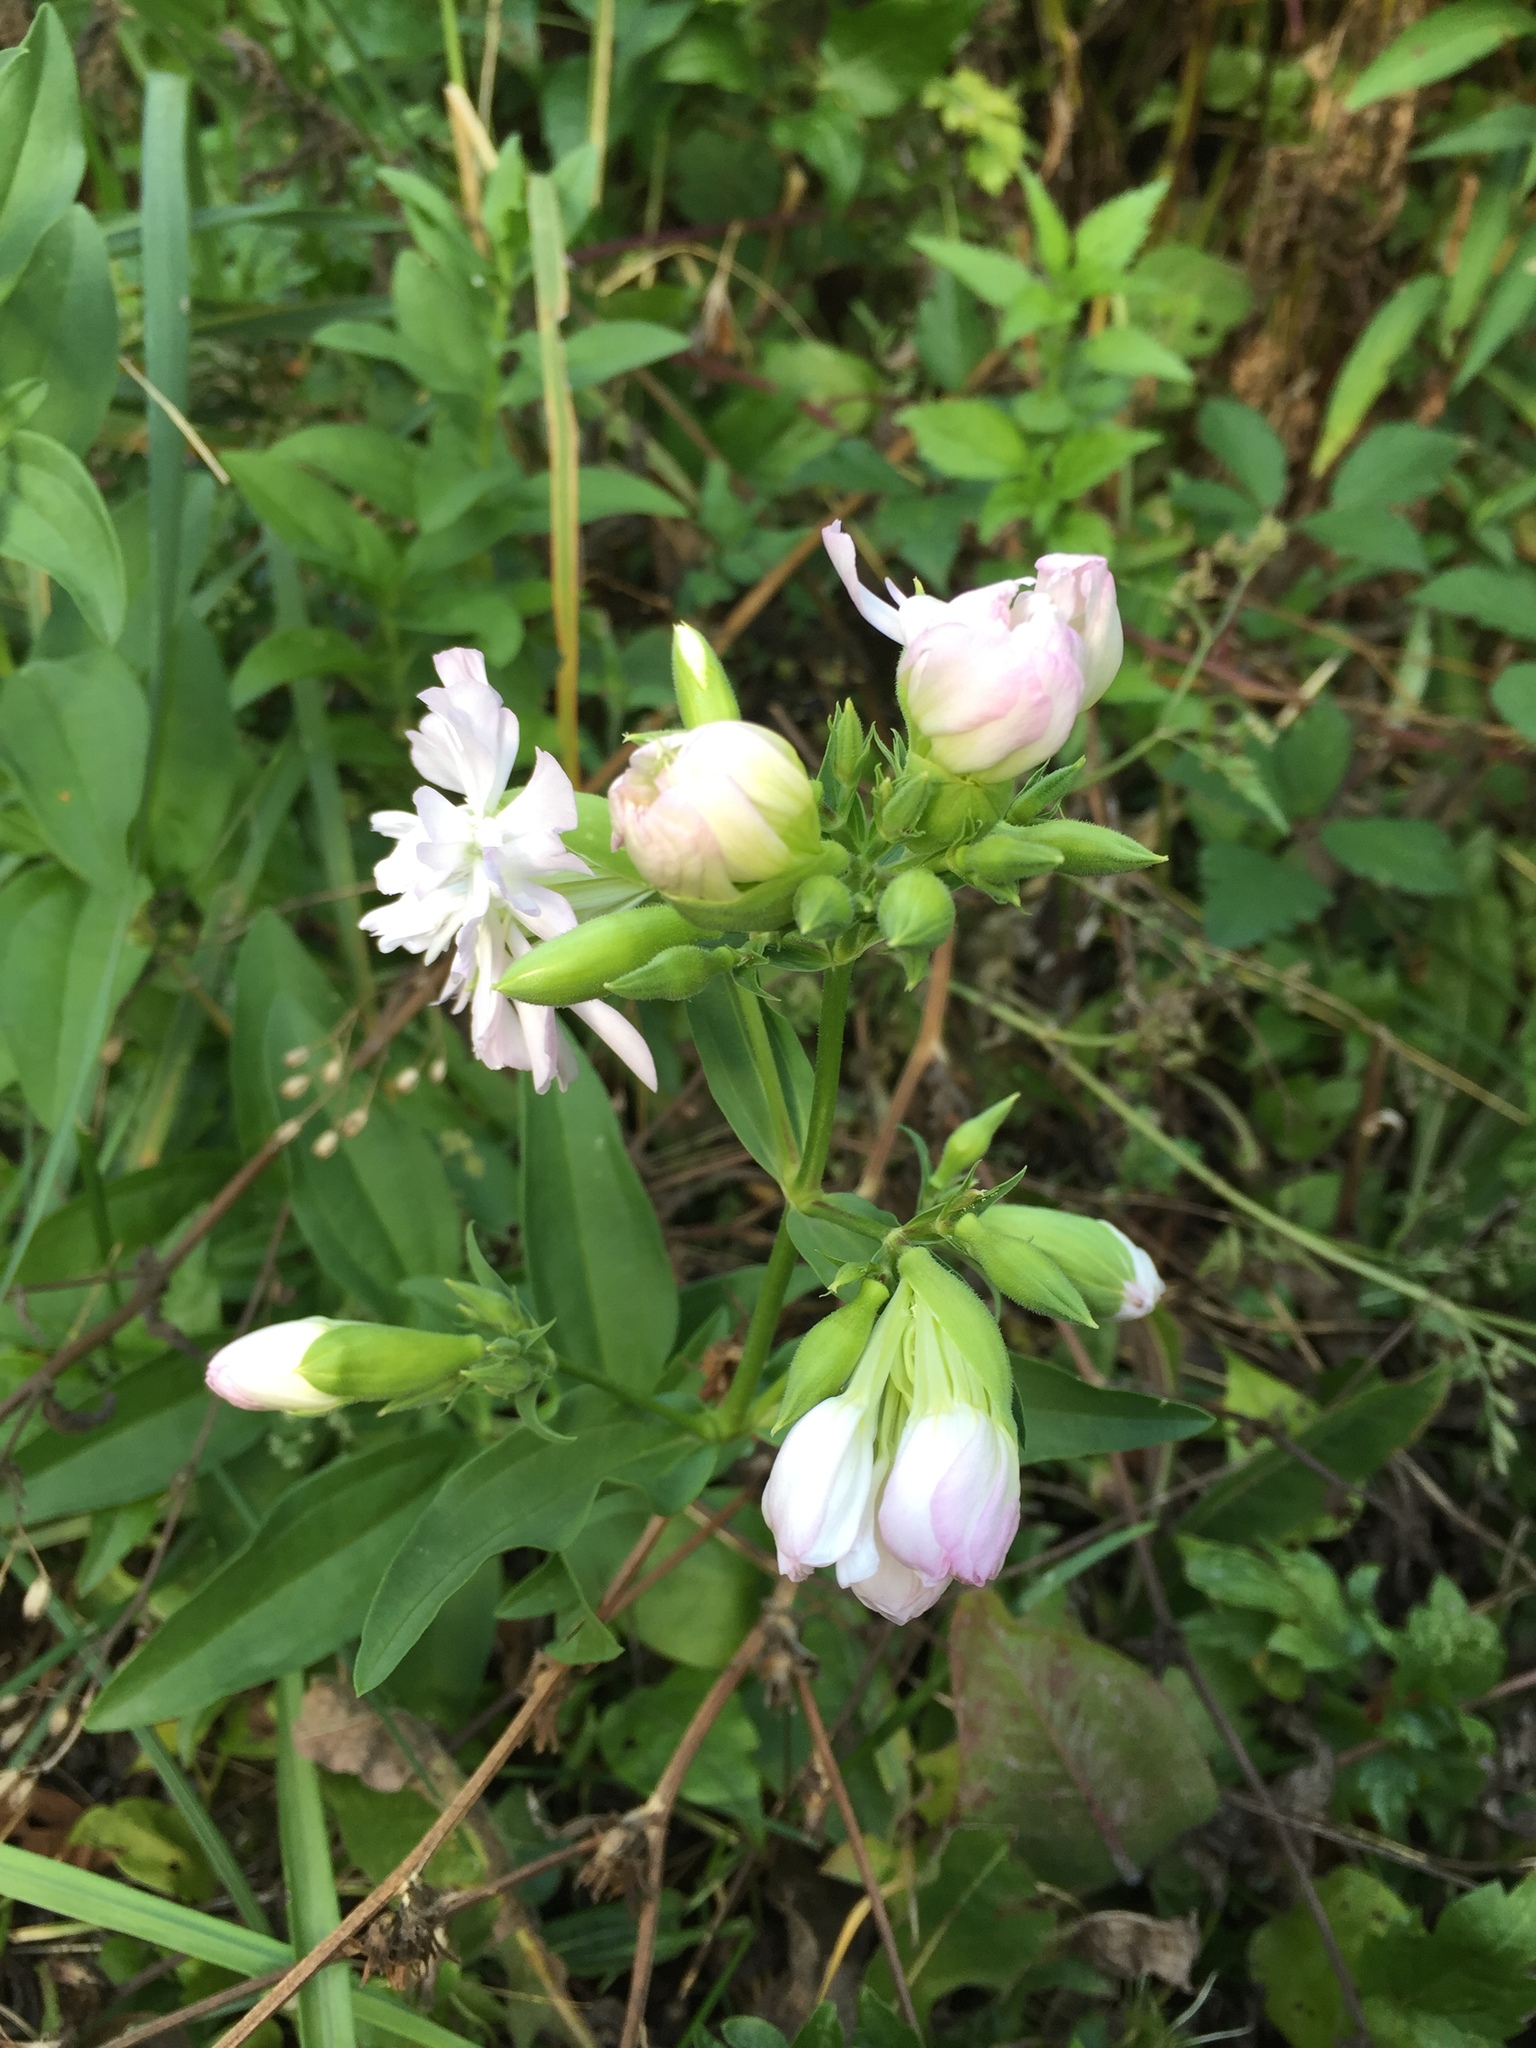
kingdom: Plantae
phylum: Tracheophyta
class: Magnoliopsida
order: Caryophyllales
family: Caryophyllaceae
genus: Saponaria
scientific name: Saponaria officinalis
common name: Soapwort
